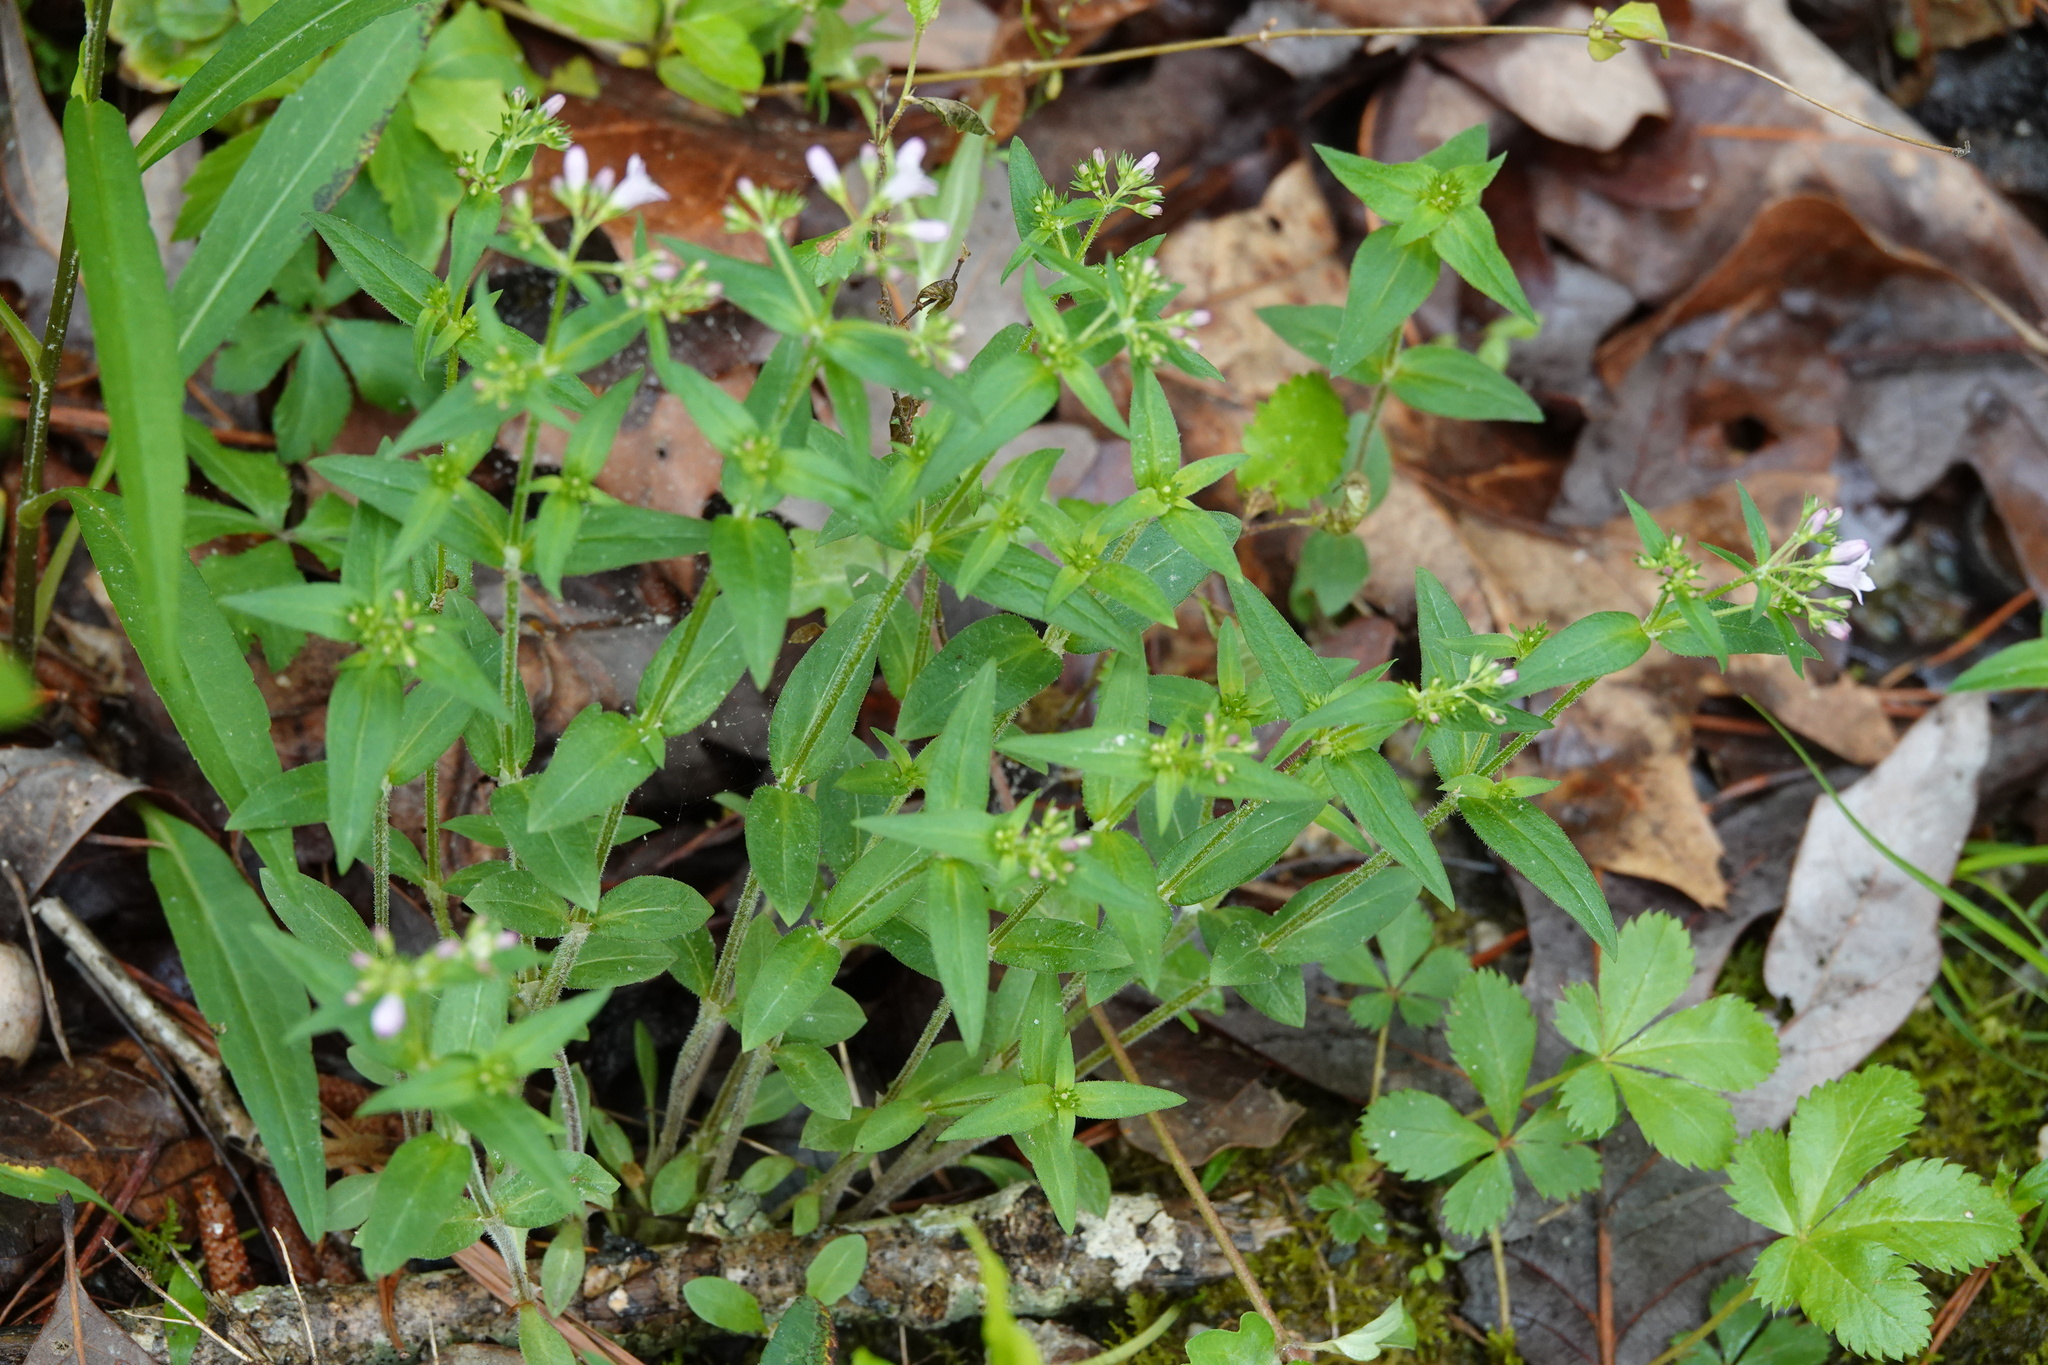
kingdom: Plantae
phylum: Tracheophyta
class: Magnoliopsida
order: Gentianales
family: Rubiaceae
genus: Houstonia
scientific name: Houstonia purpurea
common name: Summer bluet
